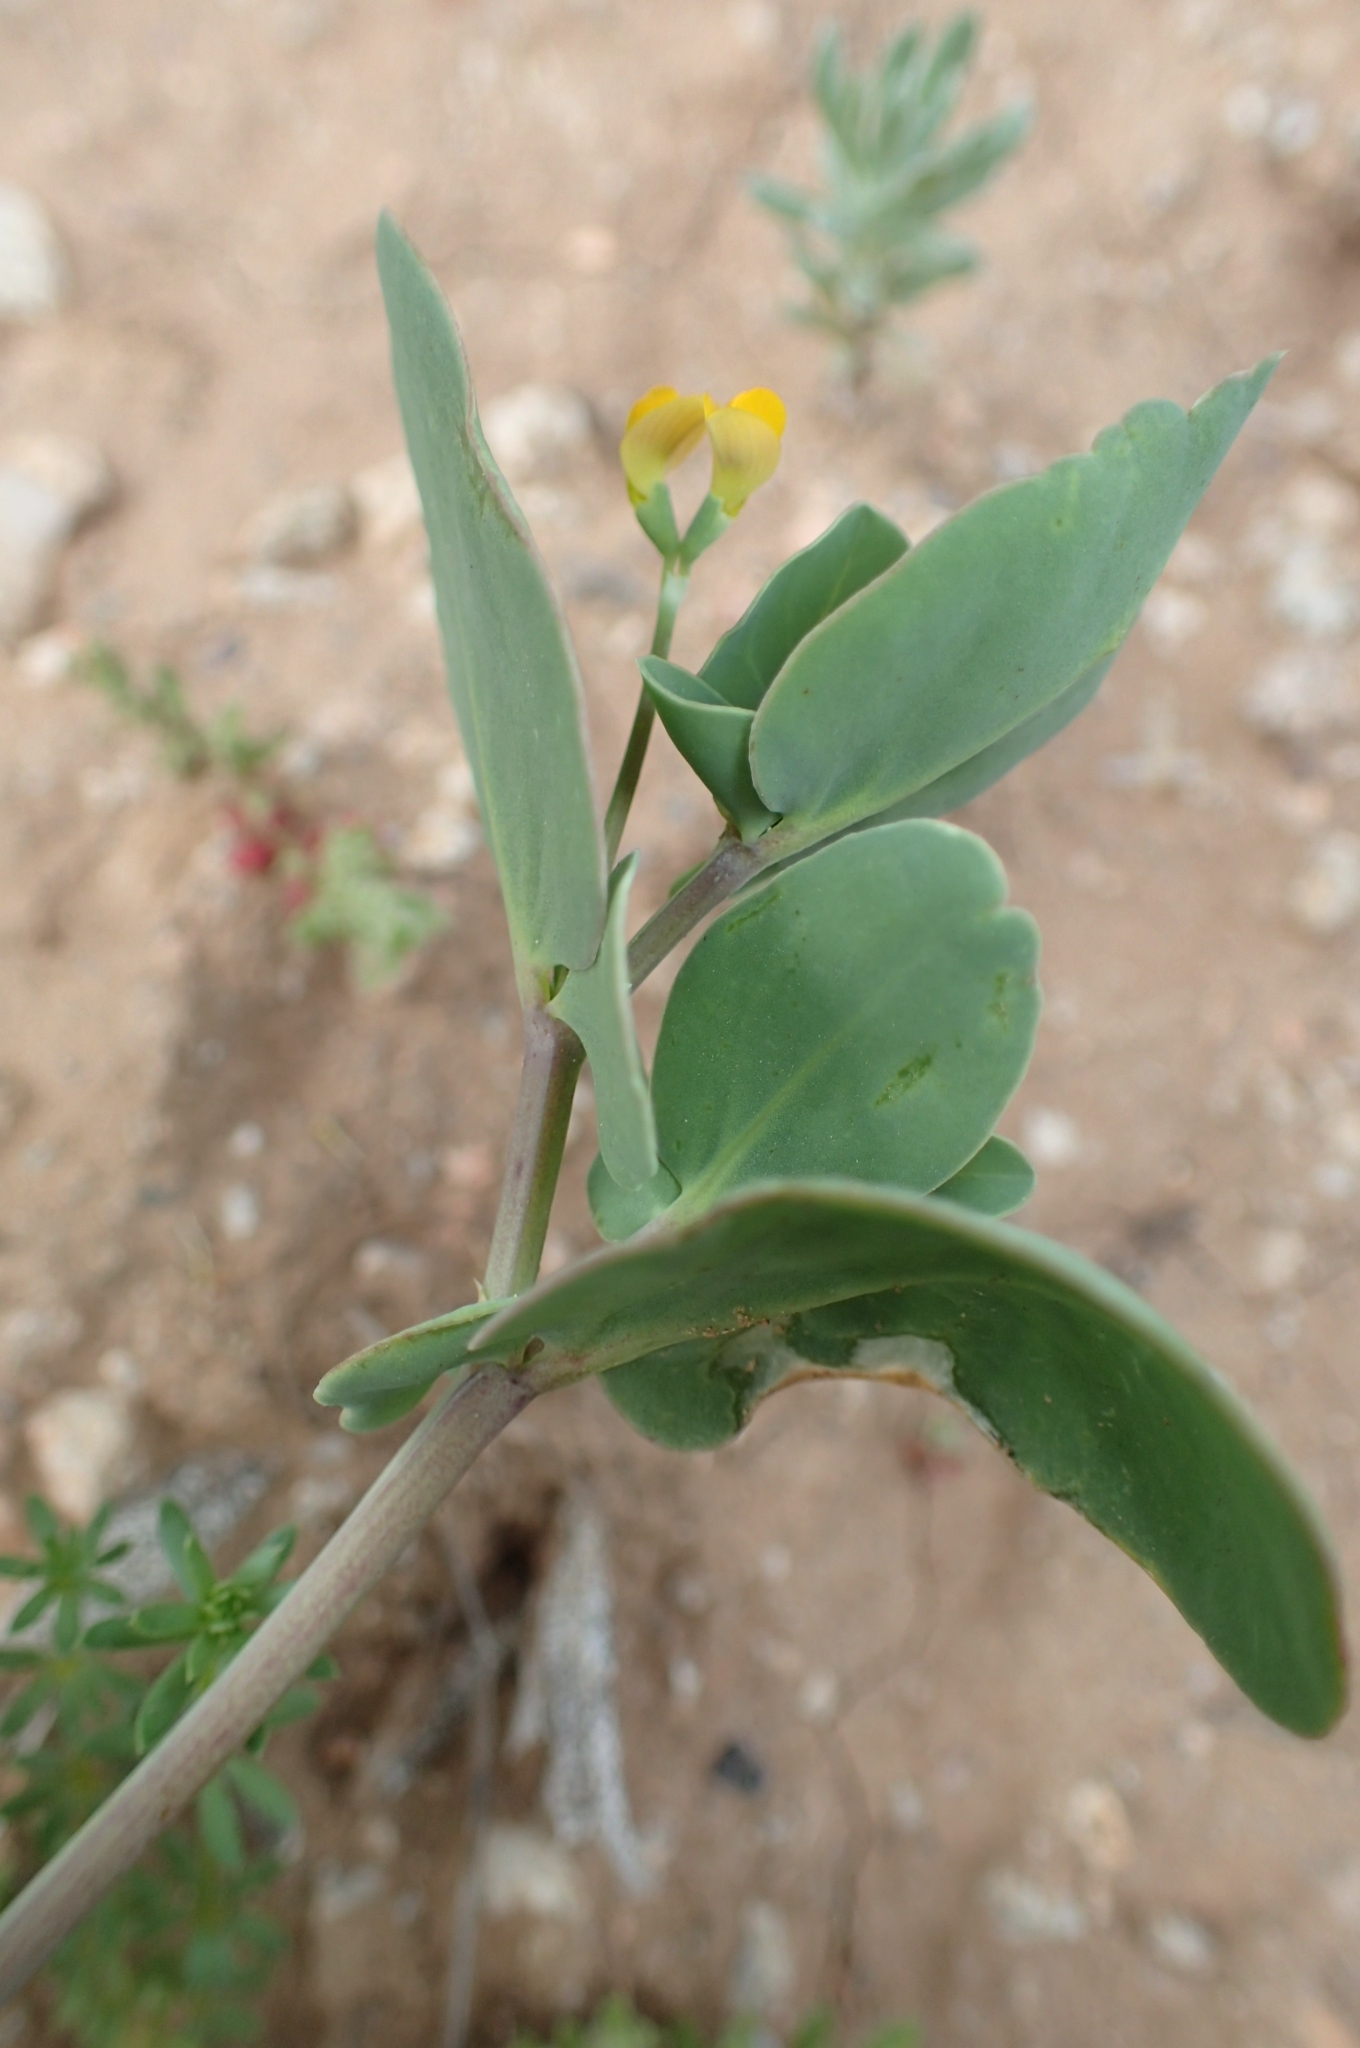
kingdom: Plantae
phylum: Tracheophyta
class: Magnoliopsida
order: Fabales
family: Fabaceae
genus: Coronilla
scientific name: Coronilla scorpioides
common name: Annual scorpion-vetch
